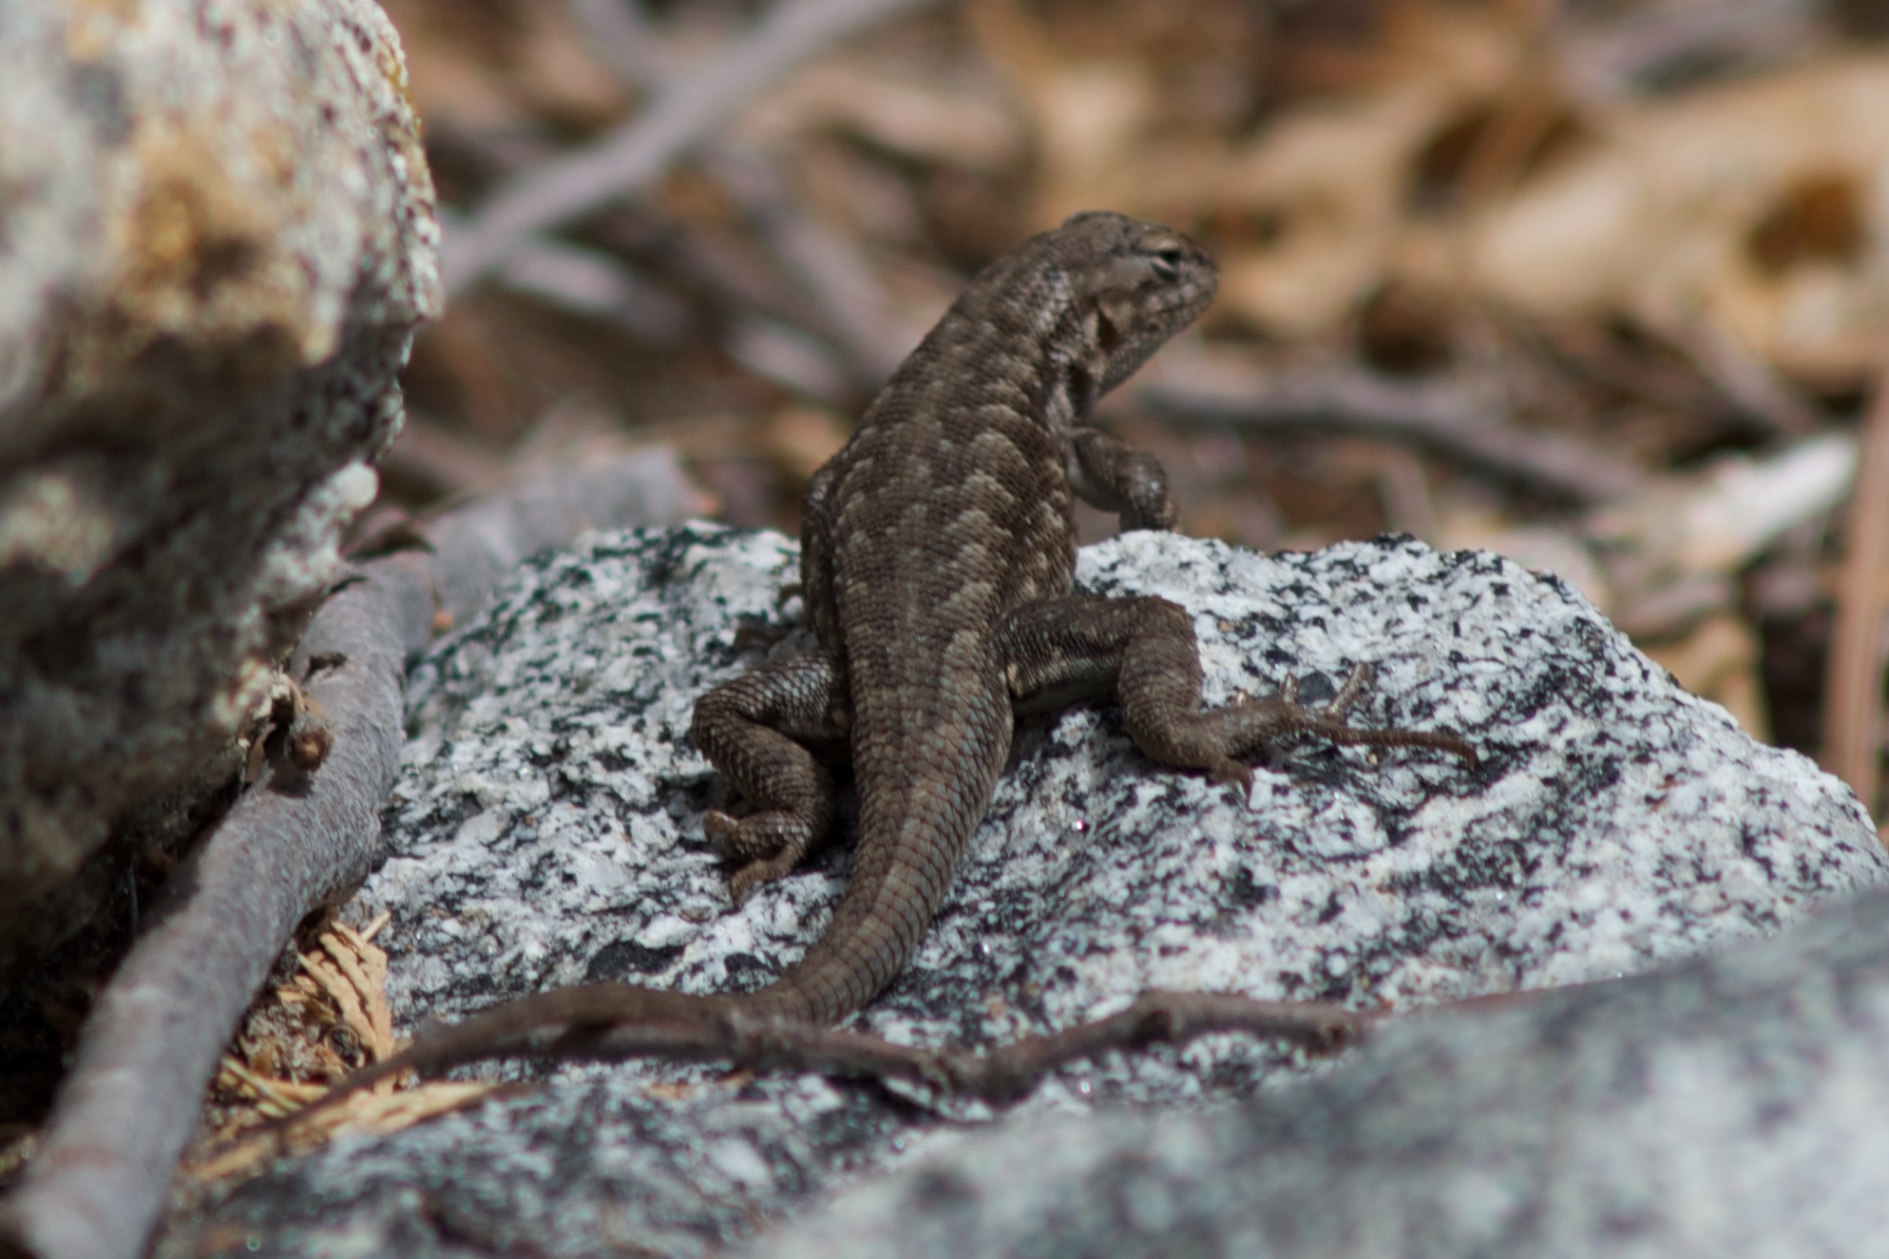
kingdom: Animalia
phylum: Chordata
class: Squamata
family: Phrynosomatidae
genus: Sceloporus
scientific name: Sceloporus graciosus
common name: Sagebrush lizard
